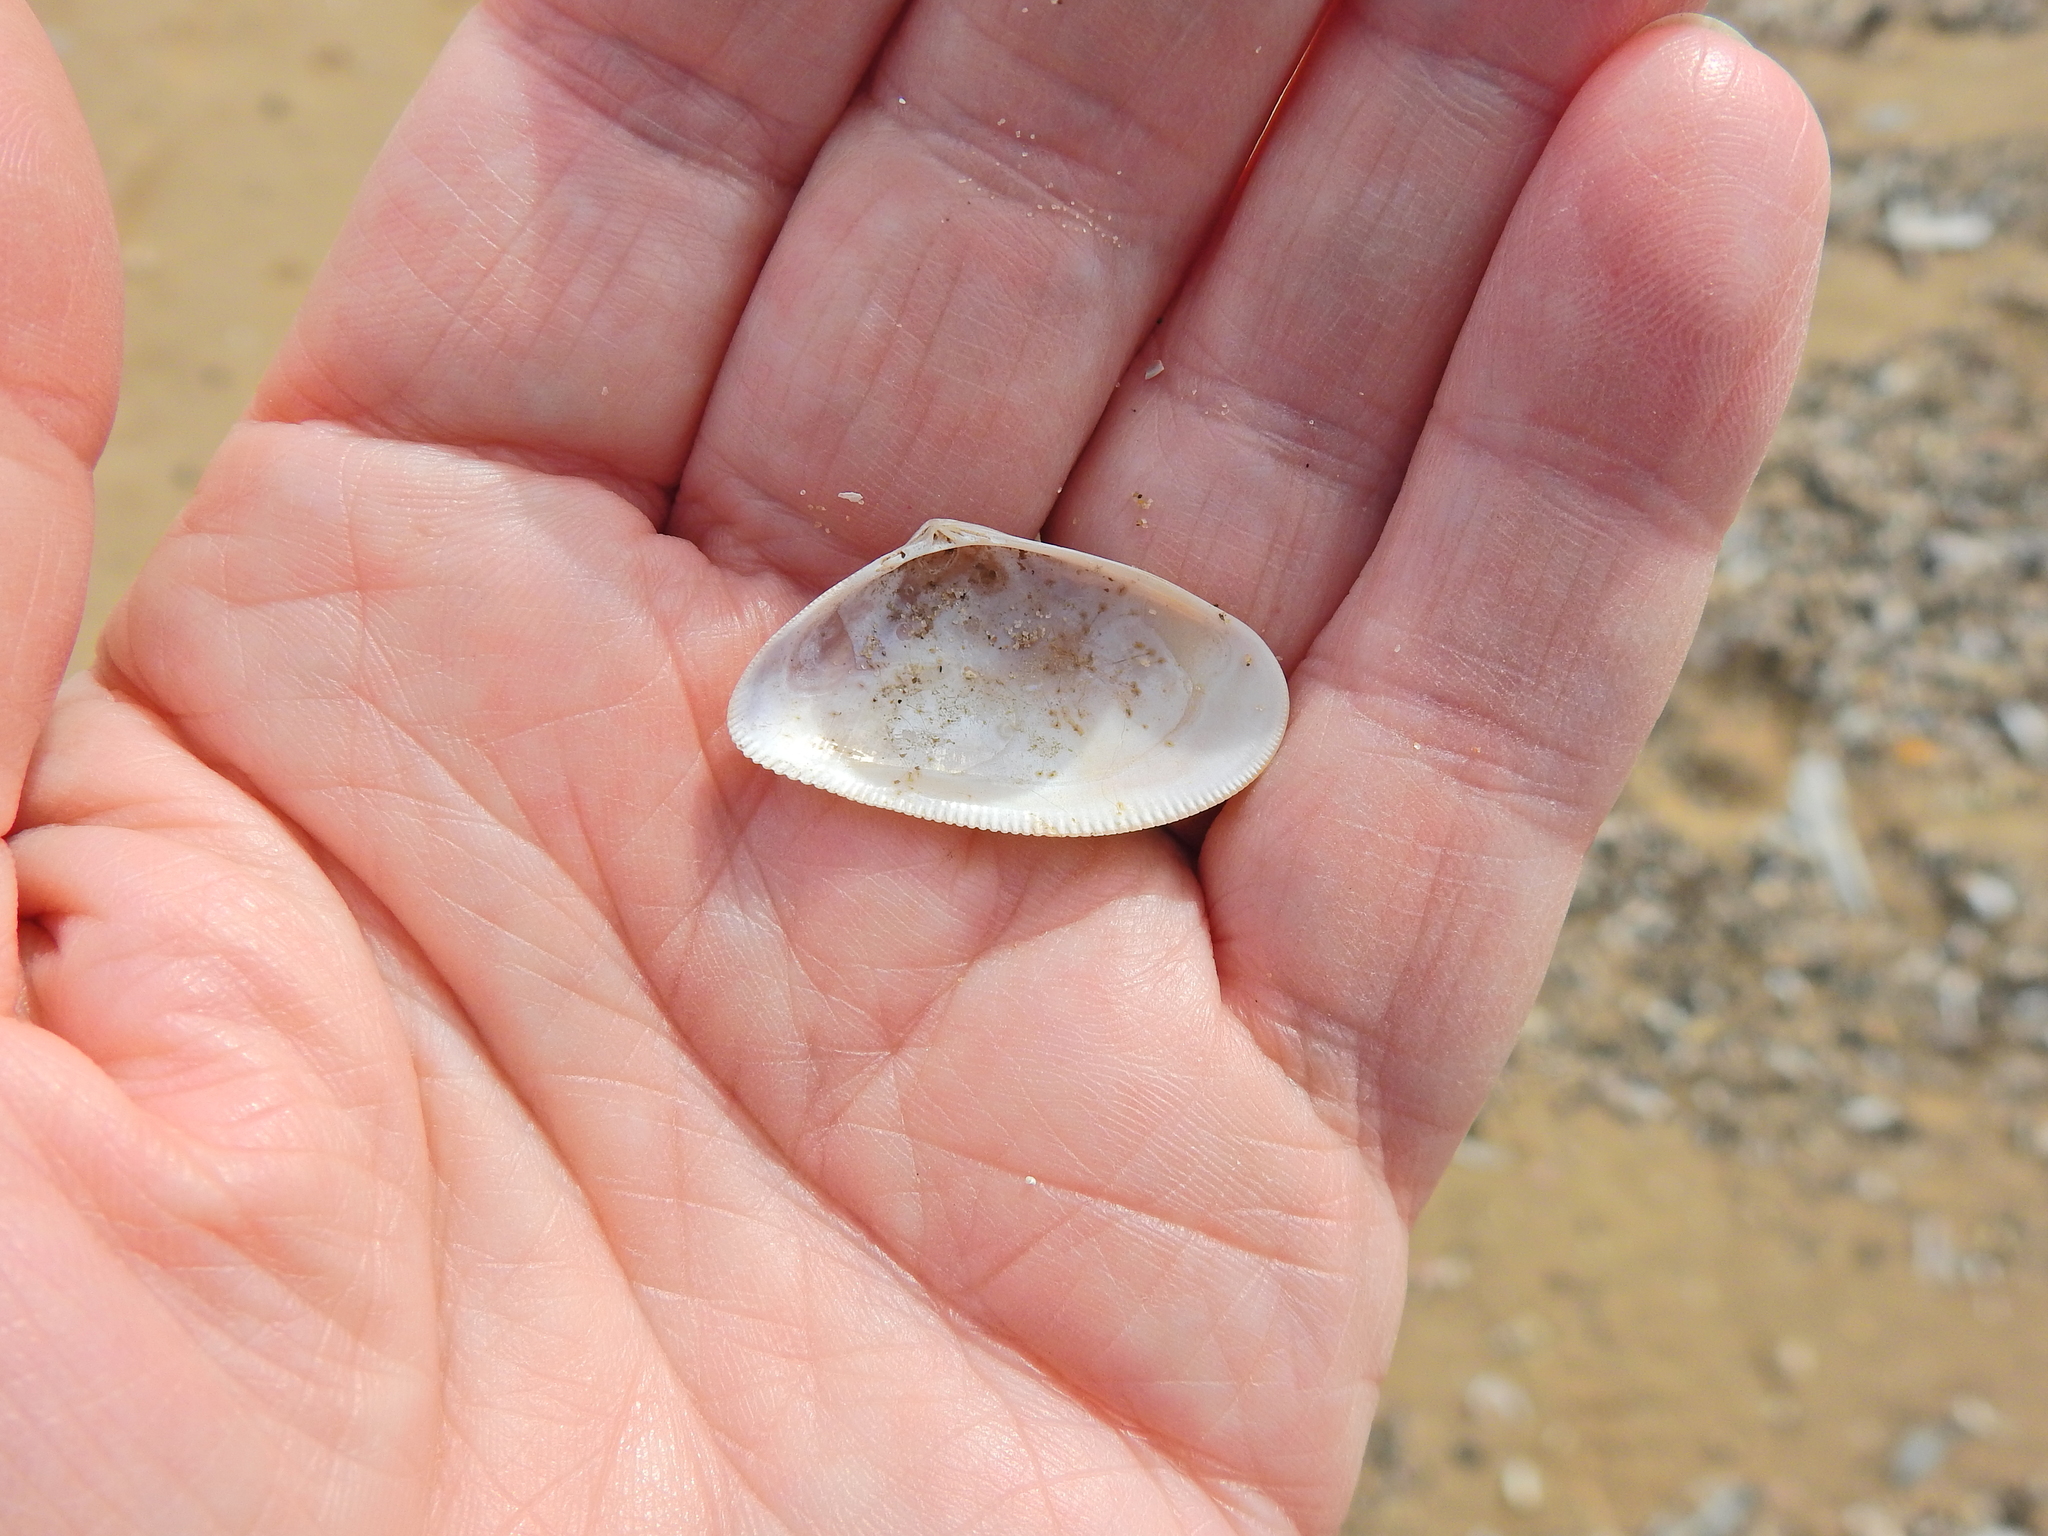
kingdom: Animalia
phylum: Mollusca
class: Bivalvia
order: Cardiida
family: Donacidae
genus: Donax
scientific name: Donax vittatus
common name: Banded wedge-shell
